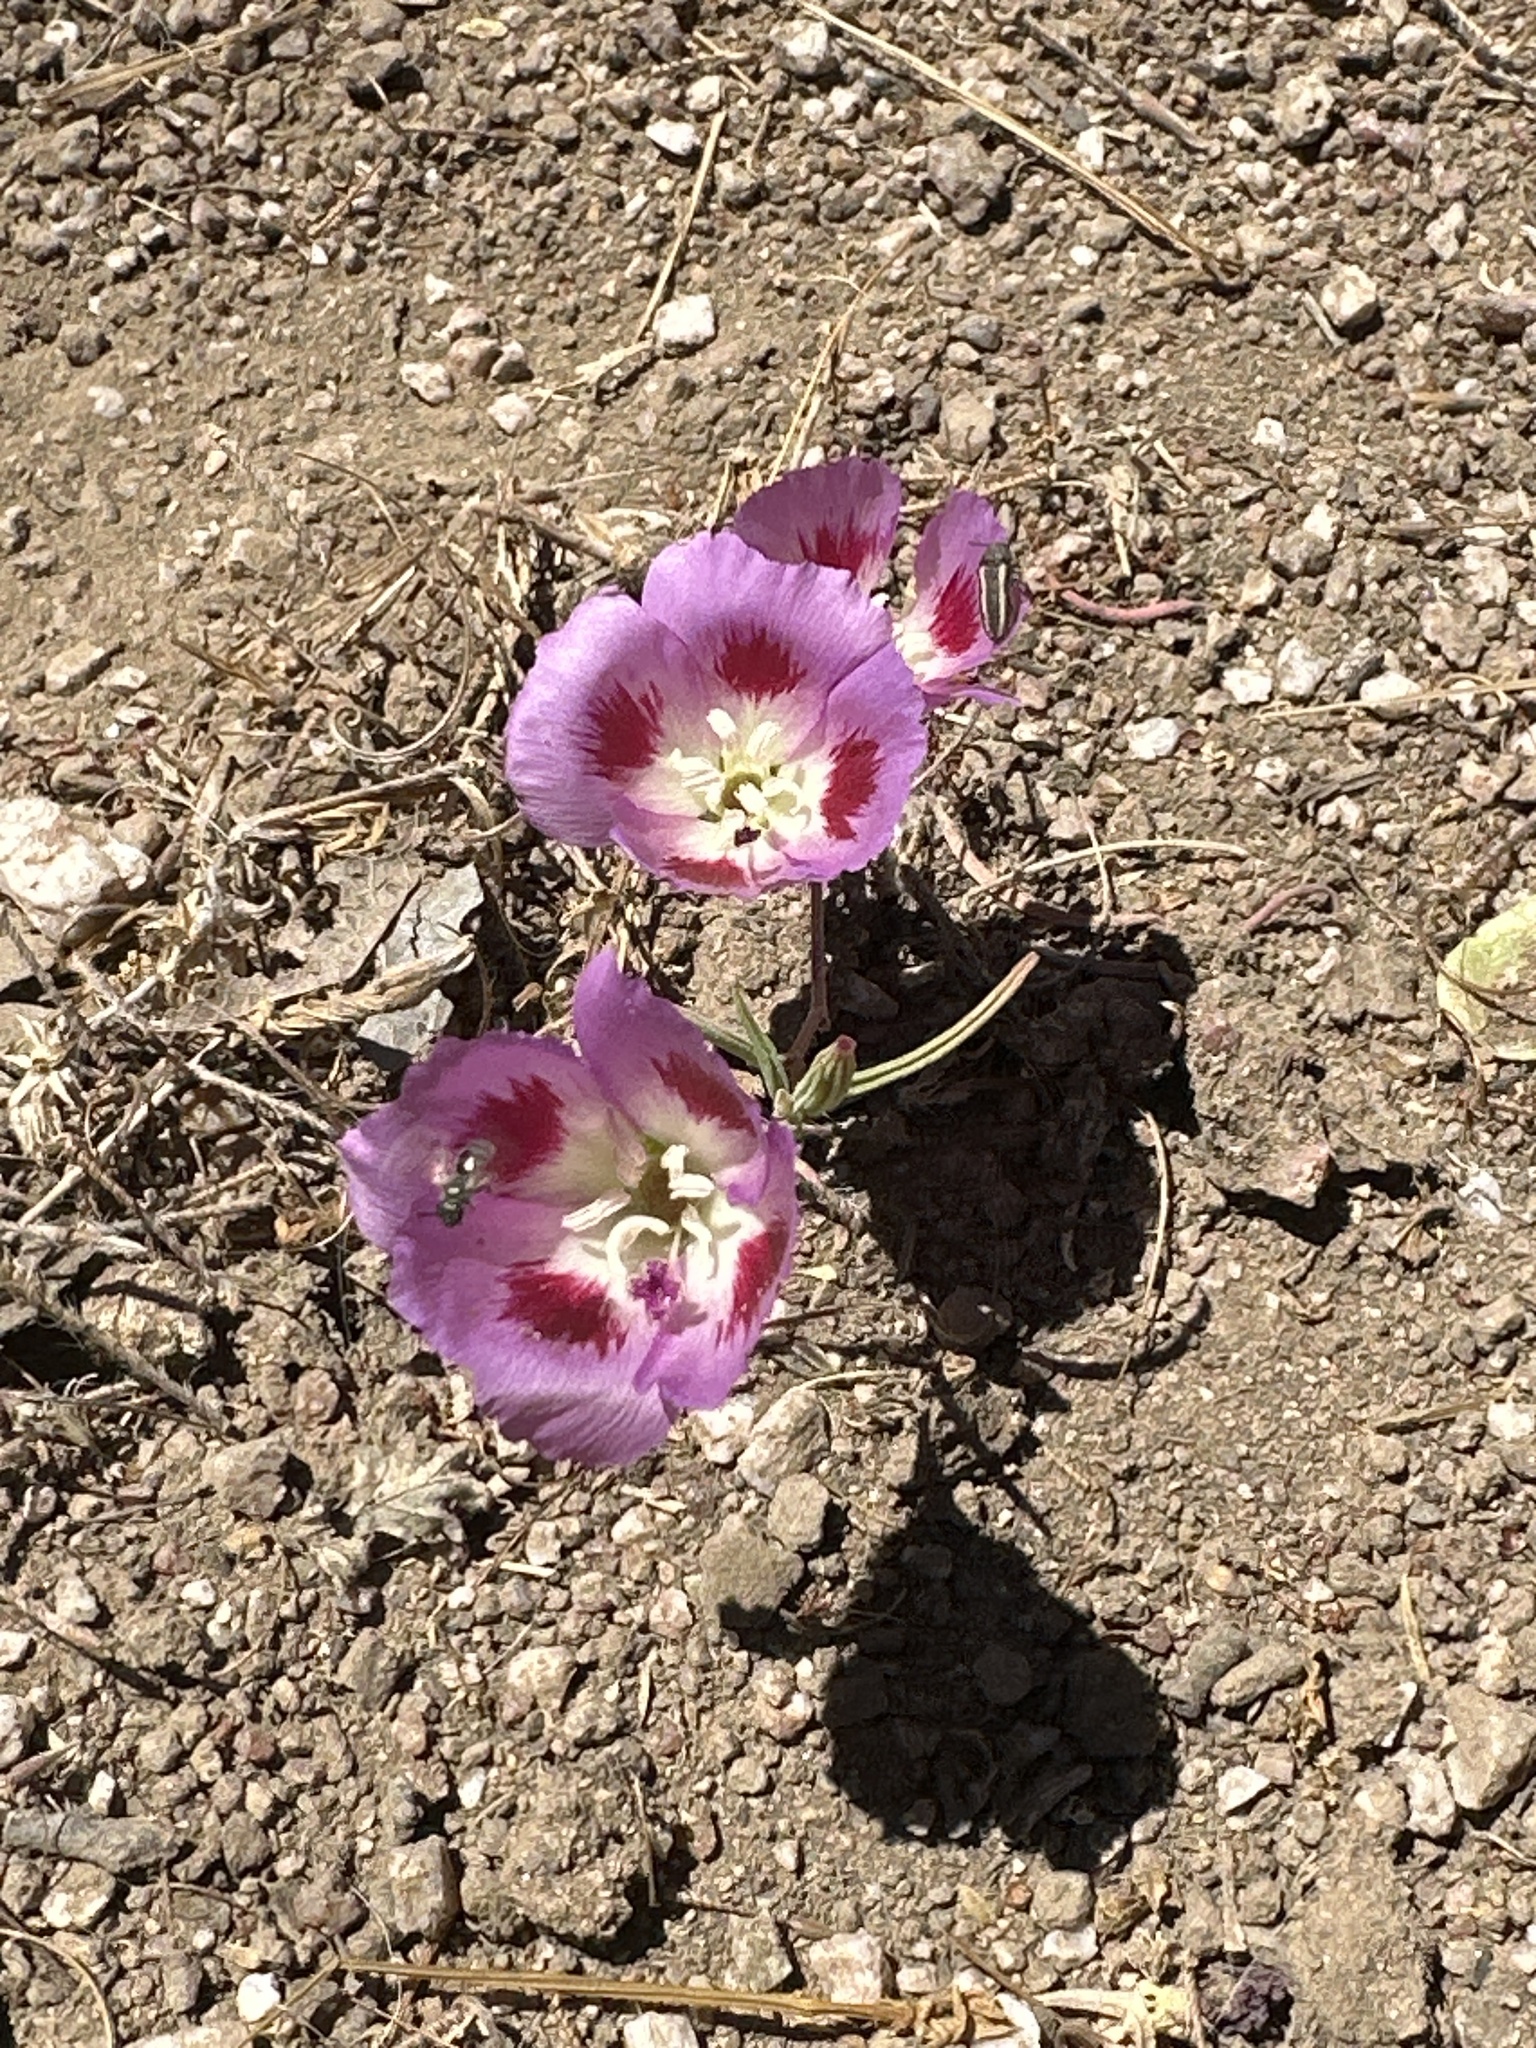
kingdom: Plantae
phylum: Tracheophyta
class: Magnoliopsida
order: Myrtales
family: Onagraceae
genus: Clarkia
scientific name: Clarkia speciosa
